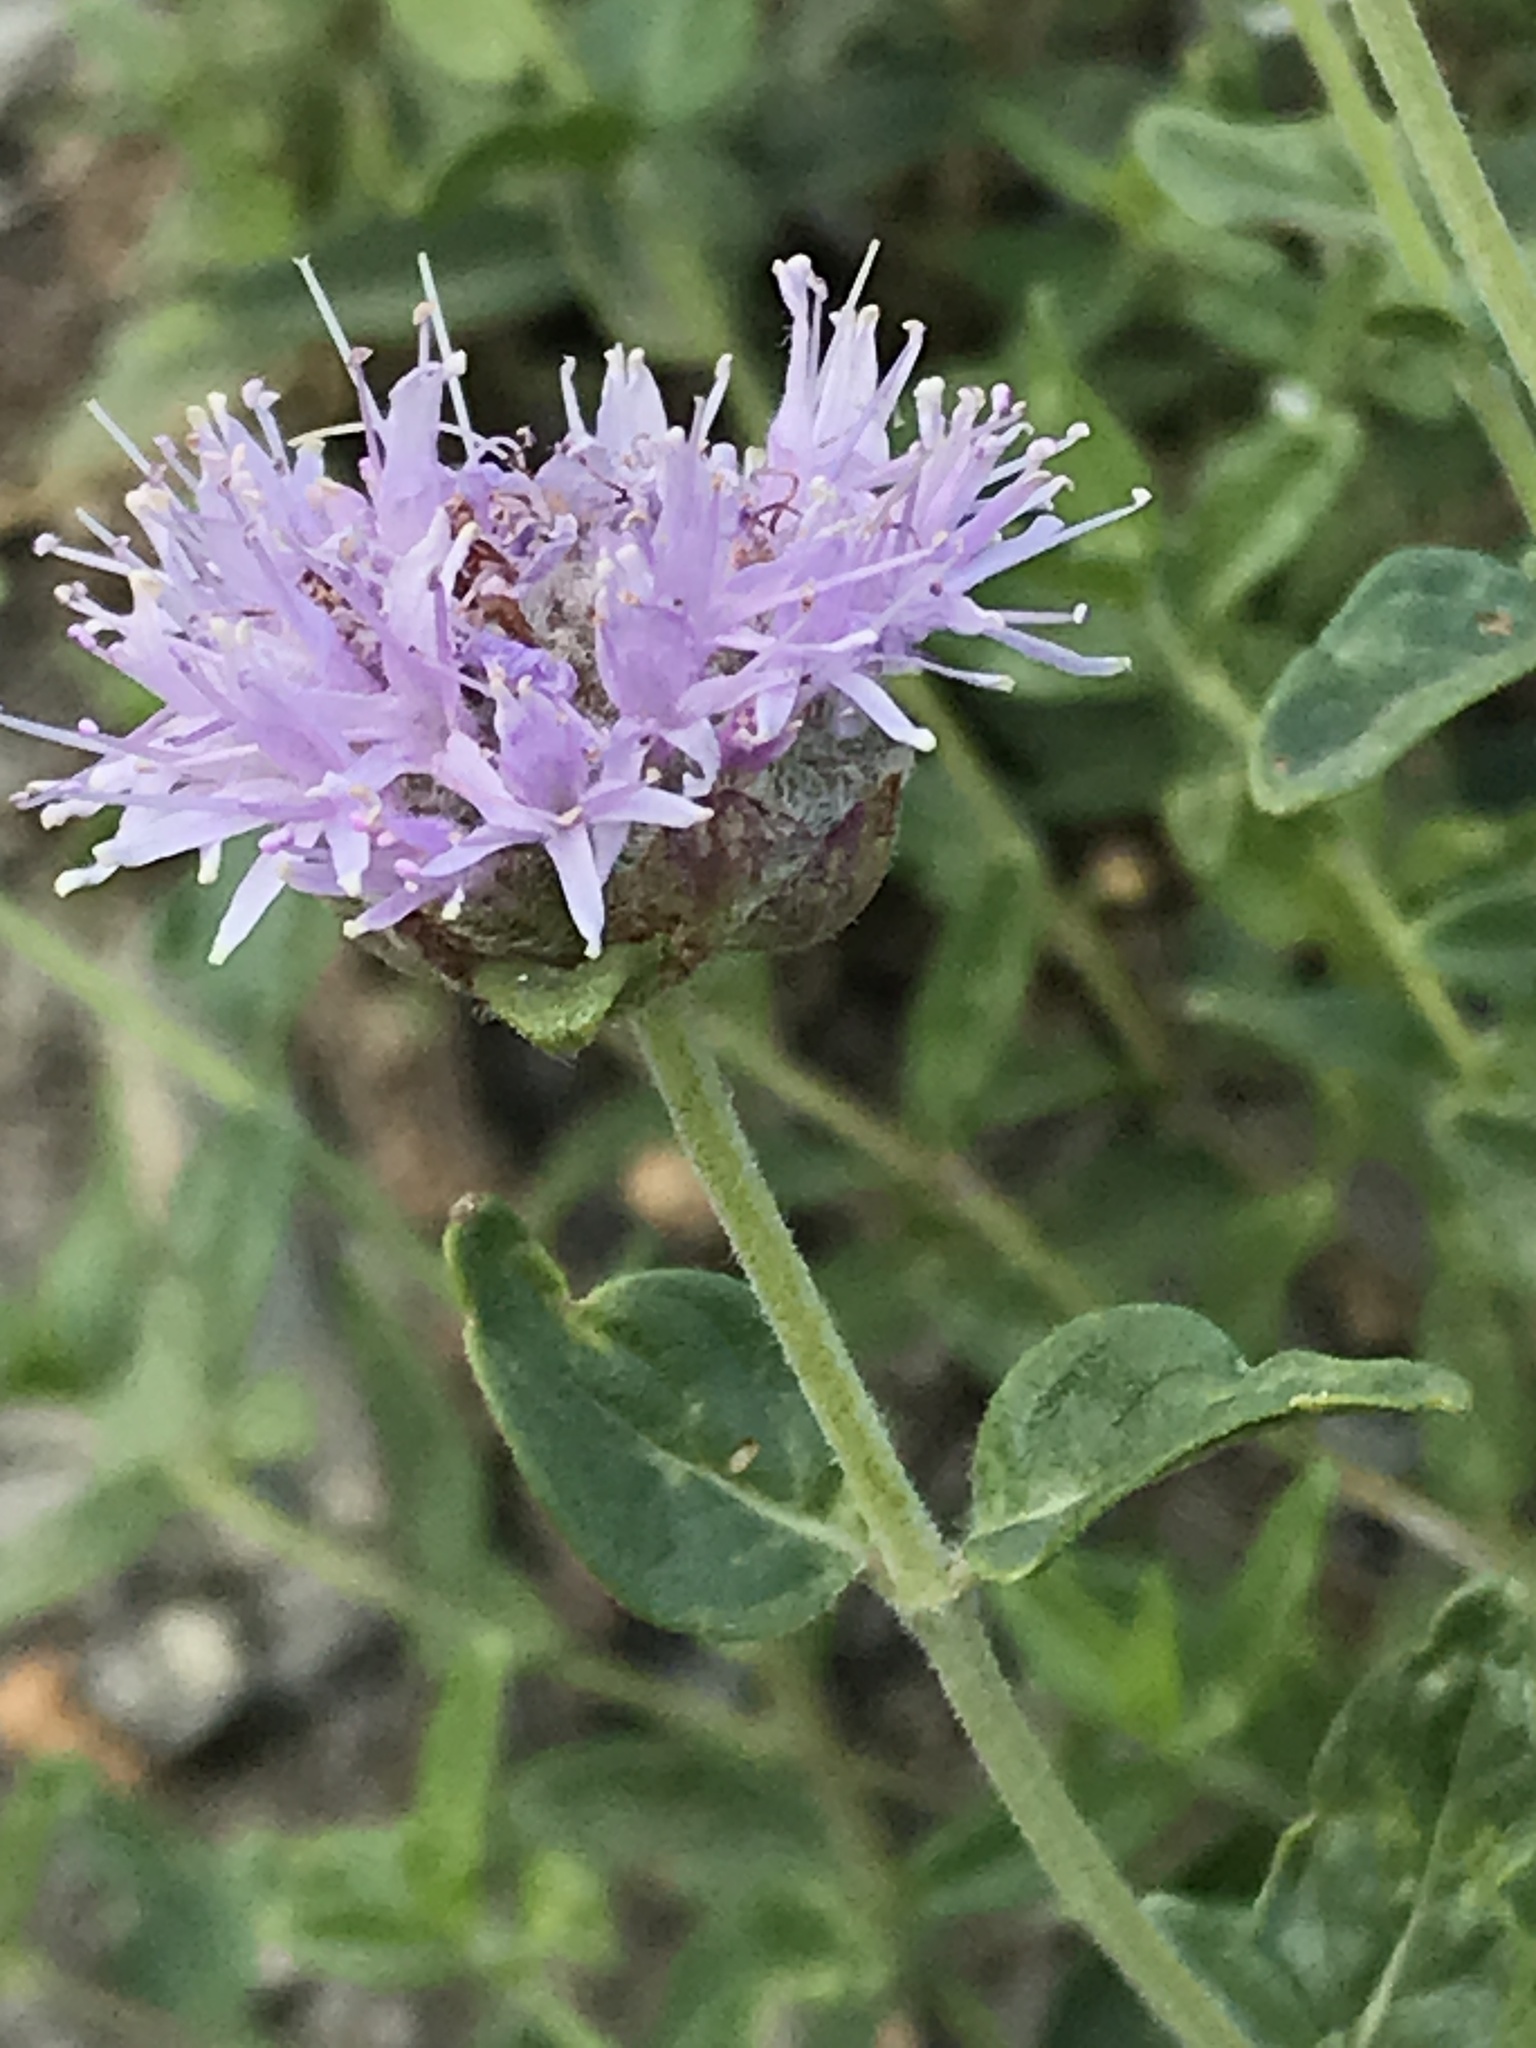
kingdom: Plantae
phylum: Tracheophyta
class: Magnoliopsida
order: Lamiales
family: Lamiaceae
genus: Monardella
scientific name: Monardella odoratissima
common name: Pacific monardella
